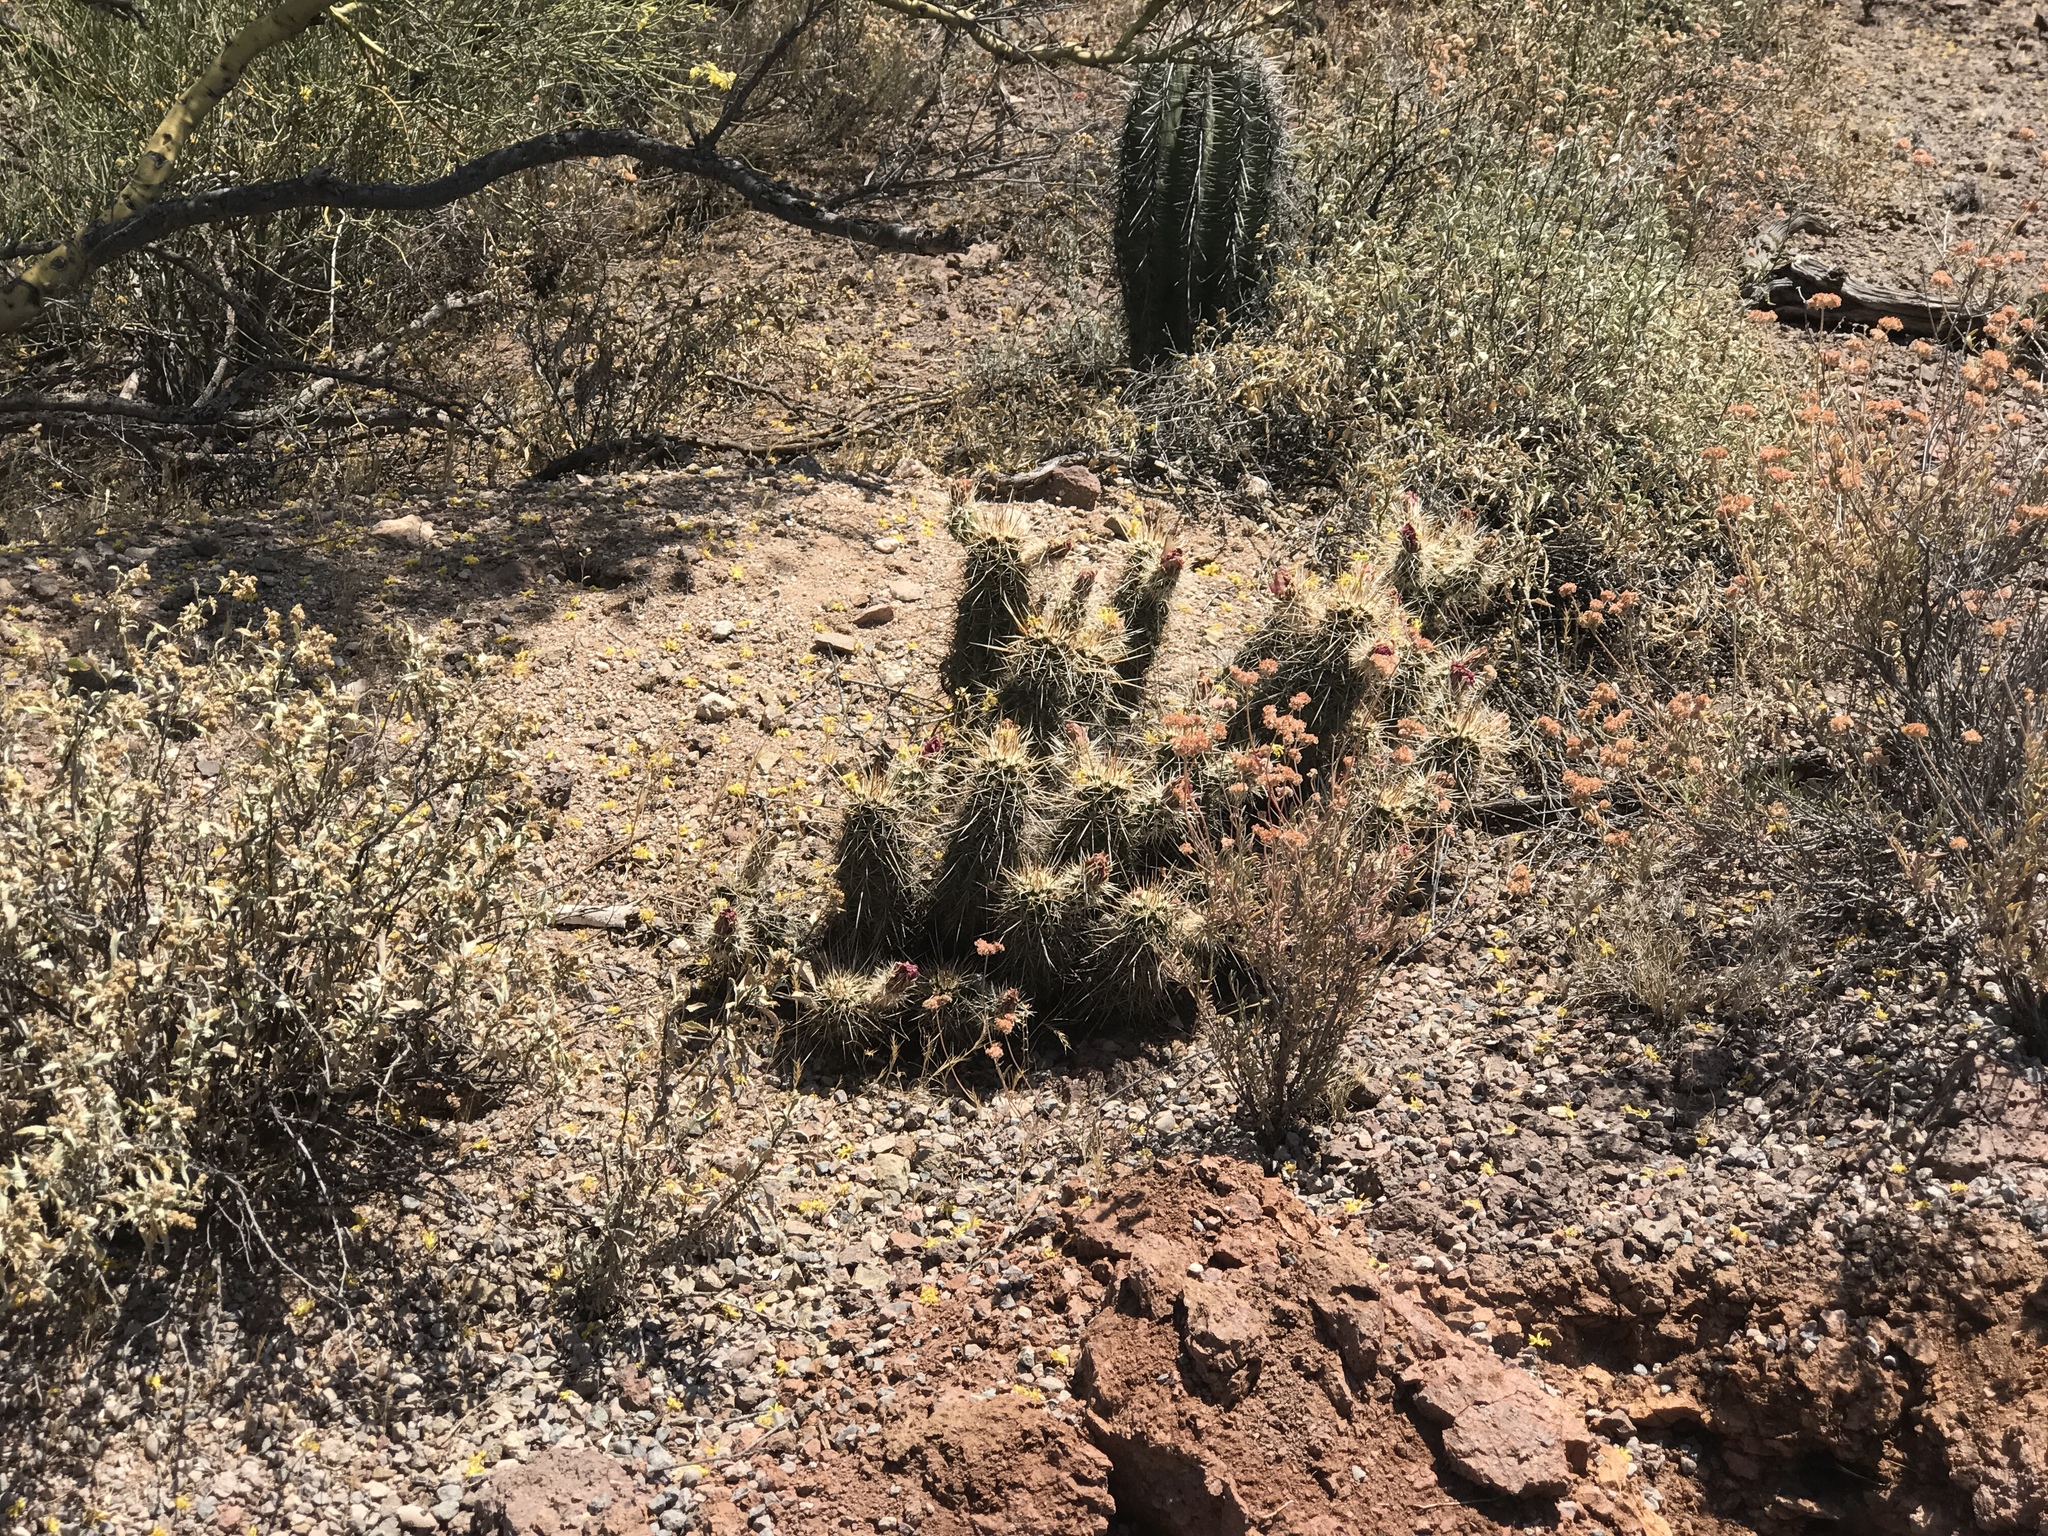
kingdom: Plantae
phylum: Tracheophyta
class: Magnoliopsida
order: Caryophyllales
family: Cactaceae
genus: Echinocereus
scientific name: Echinocereus engelmannii
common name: Engelmann's hedgehog cactus
